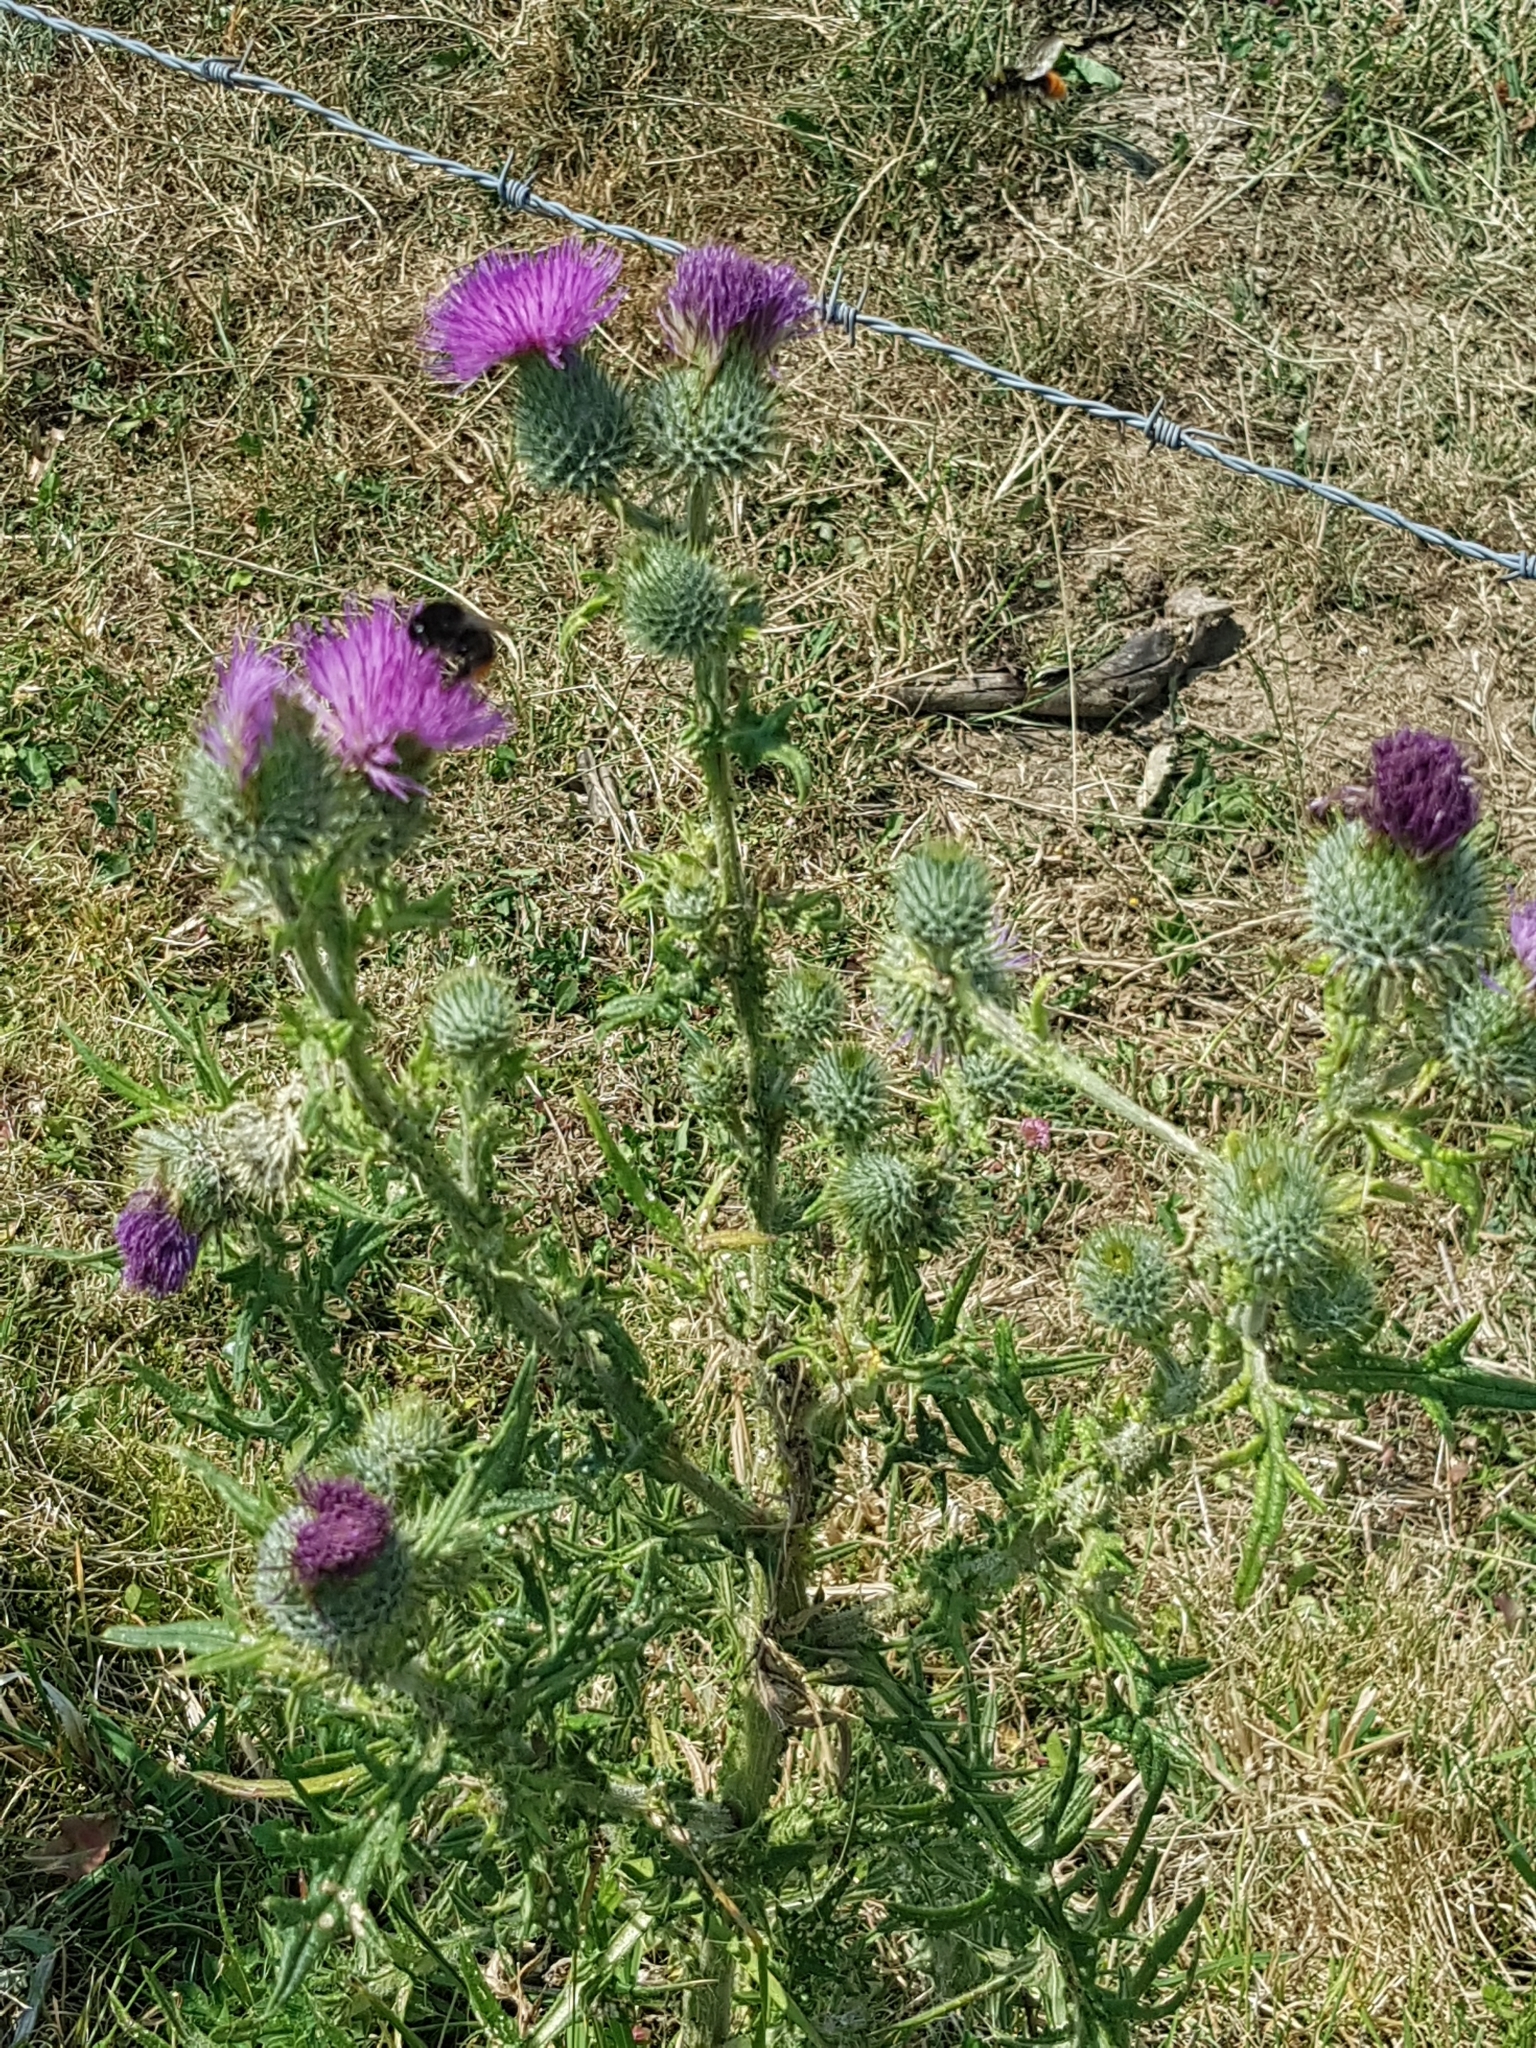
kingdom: Plantae
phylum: Tracheophyta
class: Magnoliopsida
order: Asterales
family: Asteraceae
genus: Cirsium
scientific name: Cirsium vulgare
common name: Bull thistle
